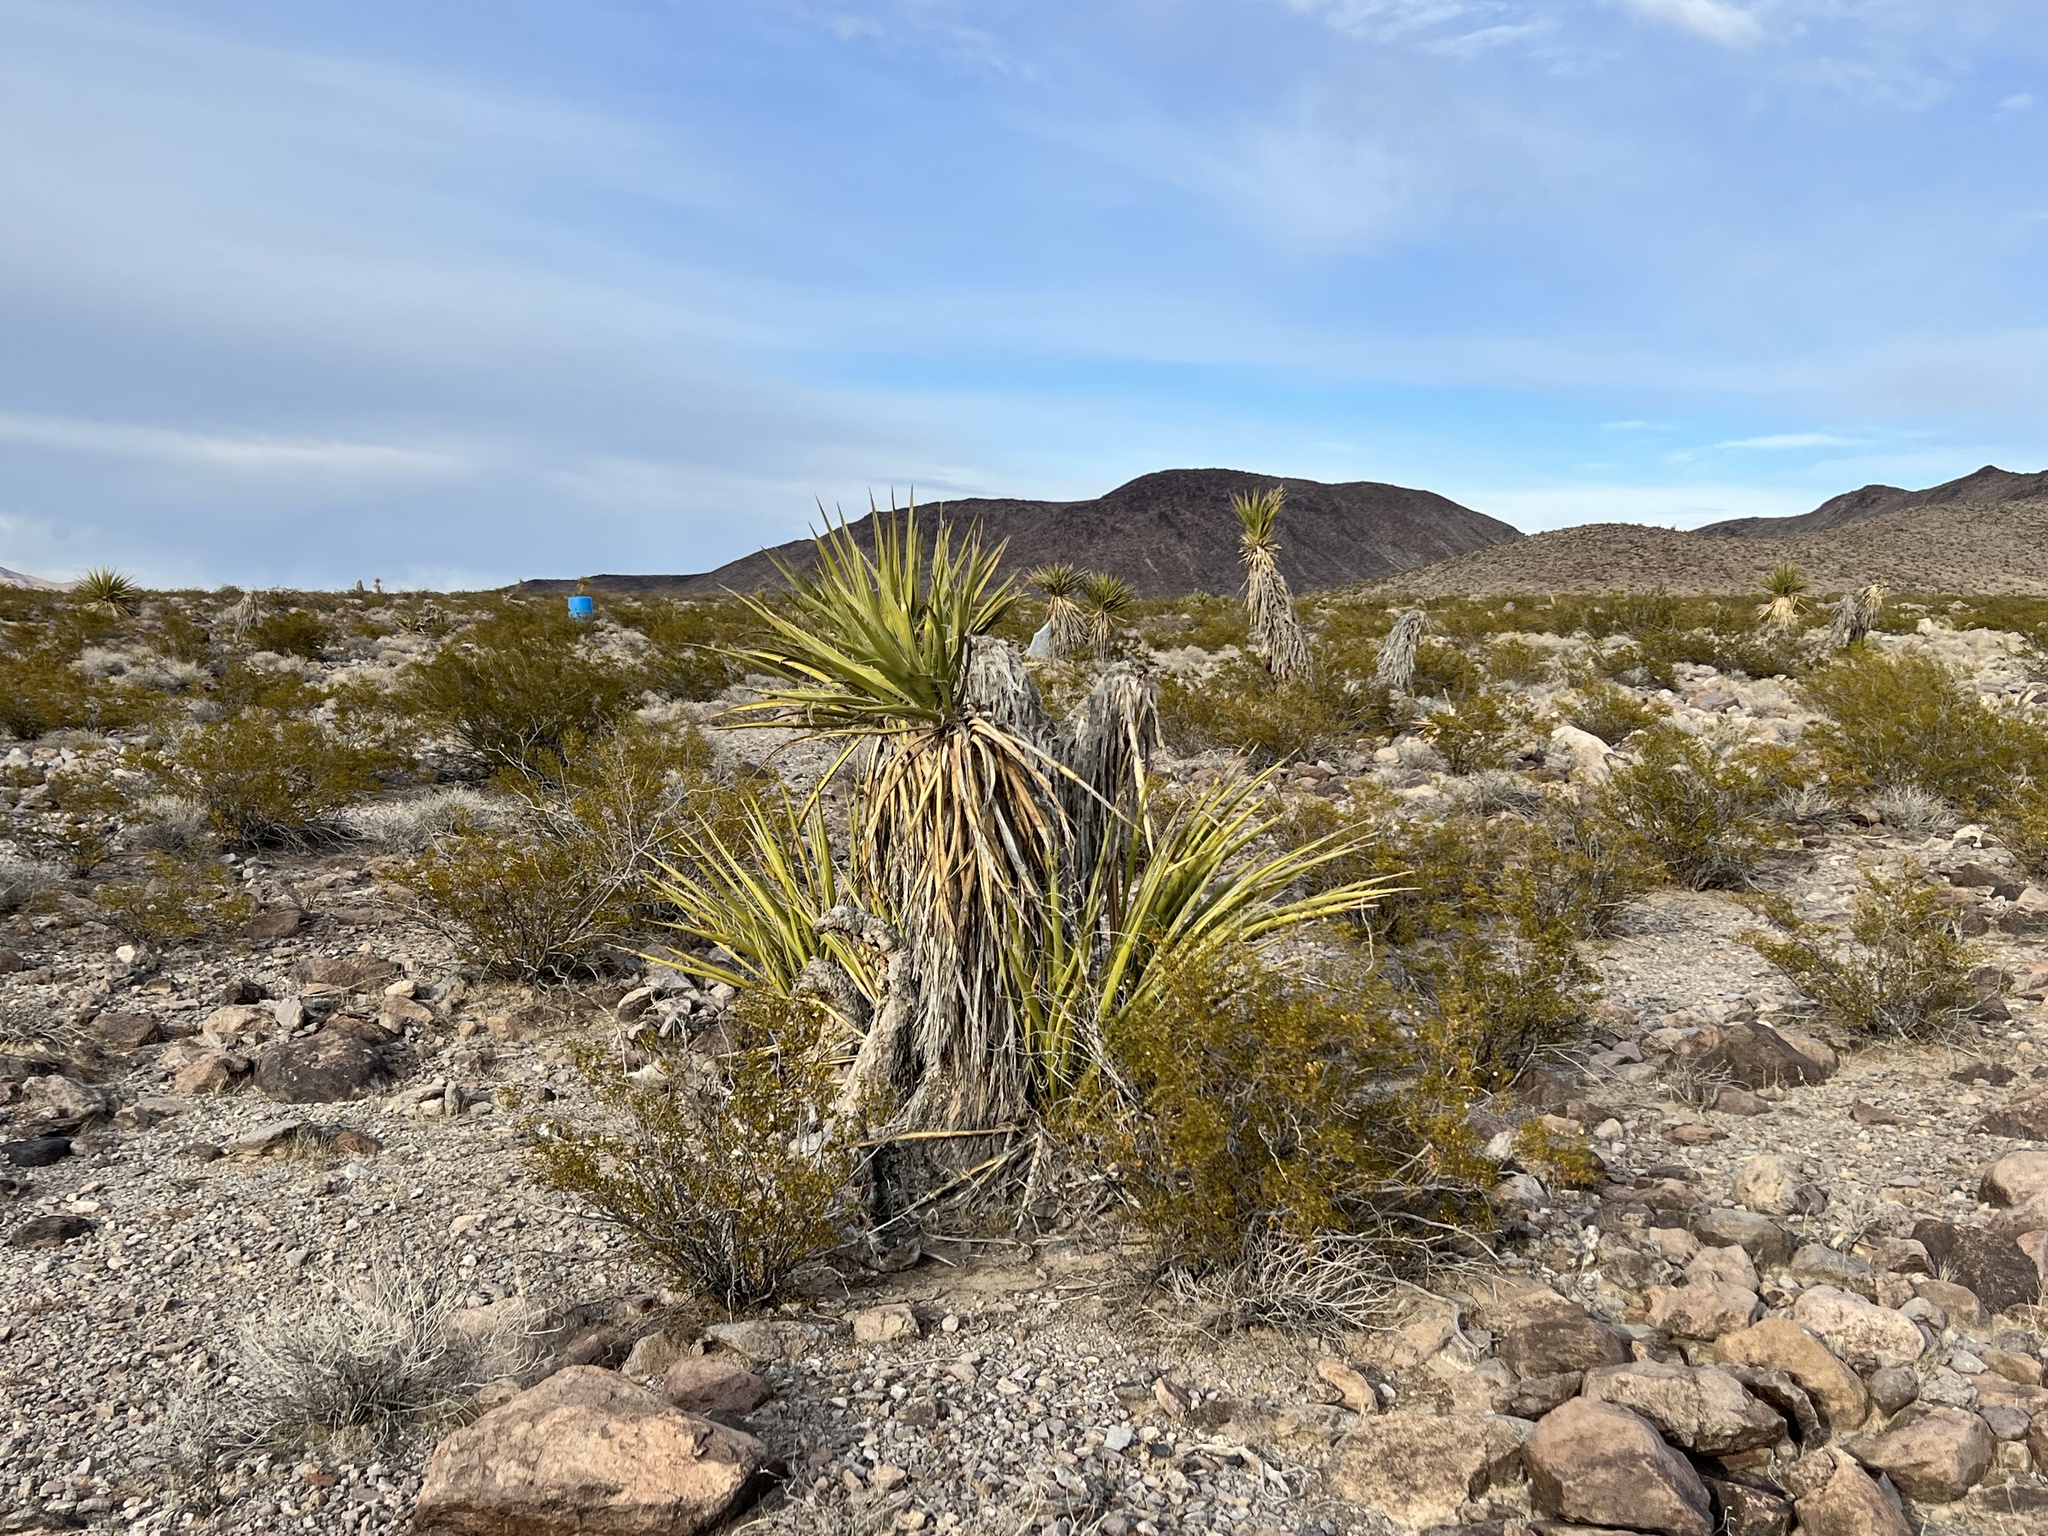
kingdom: Plantae
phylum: Tracheophyta
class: Liliopsida
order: Asparagales
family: Asparagaceae
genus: Yucca
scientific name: Yucca schidigera
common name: Mojave yucca
